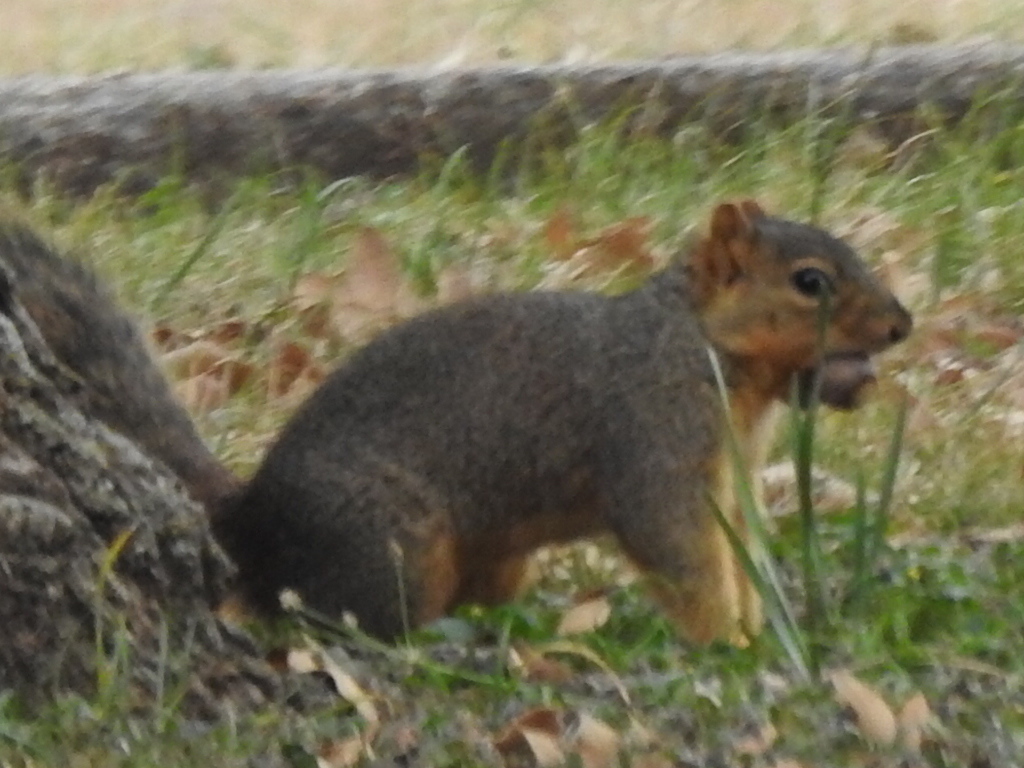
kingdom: Animalia
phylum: Chordata
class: Mammalia
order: Rodentia
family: Sciuridae
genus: Sciurus
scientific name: Sciurus niger
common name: Fox squirrel
